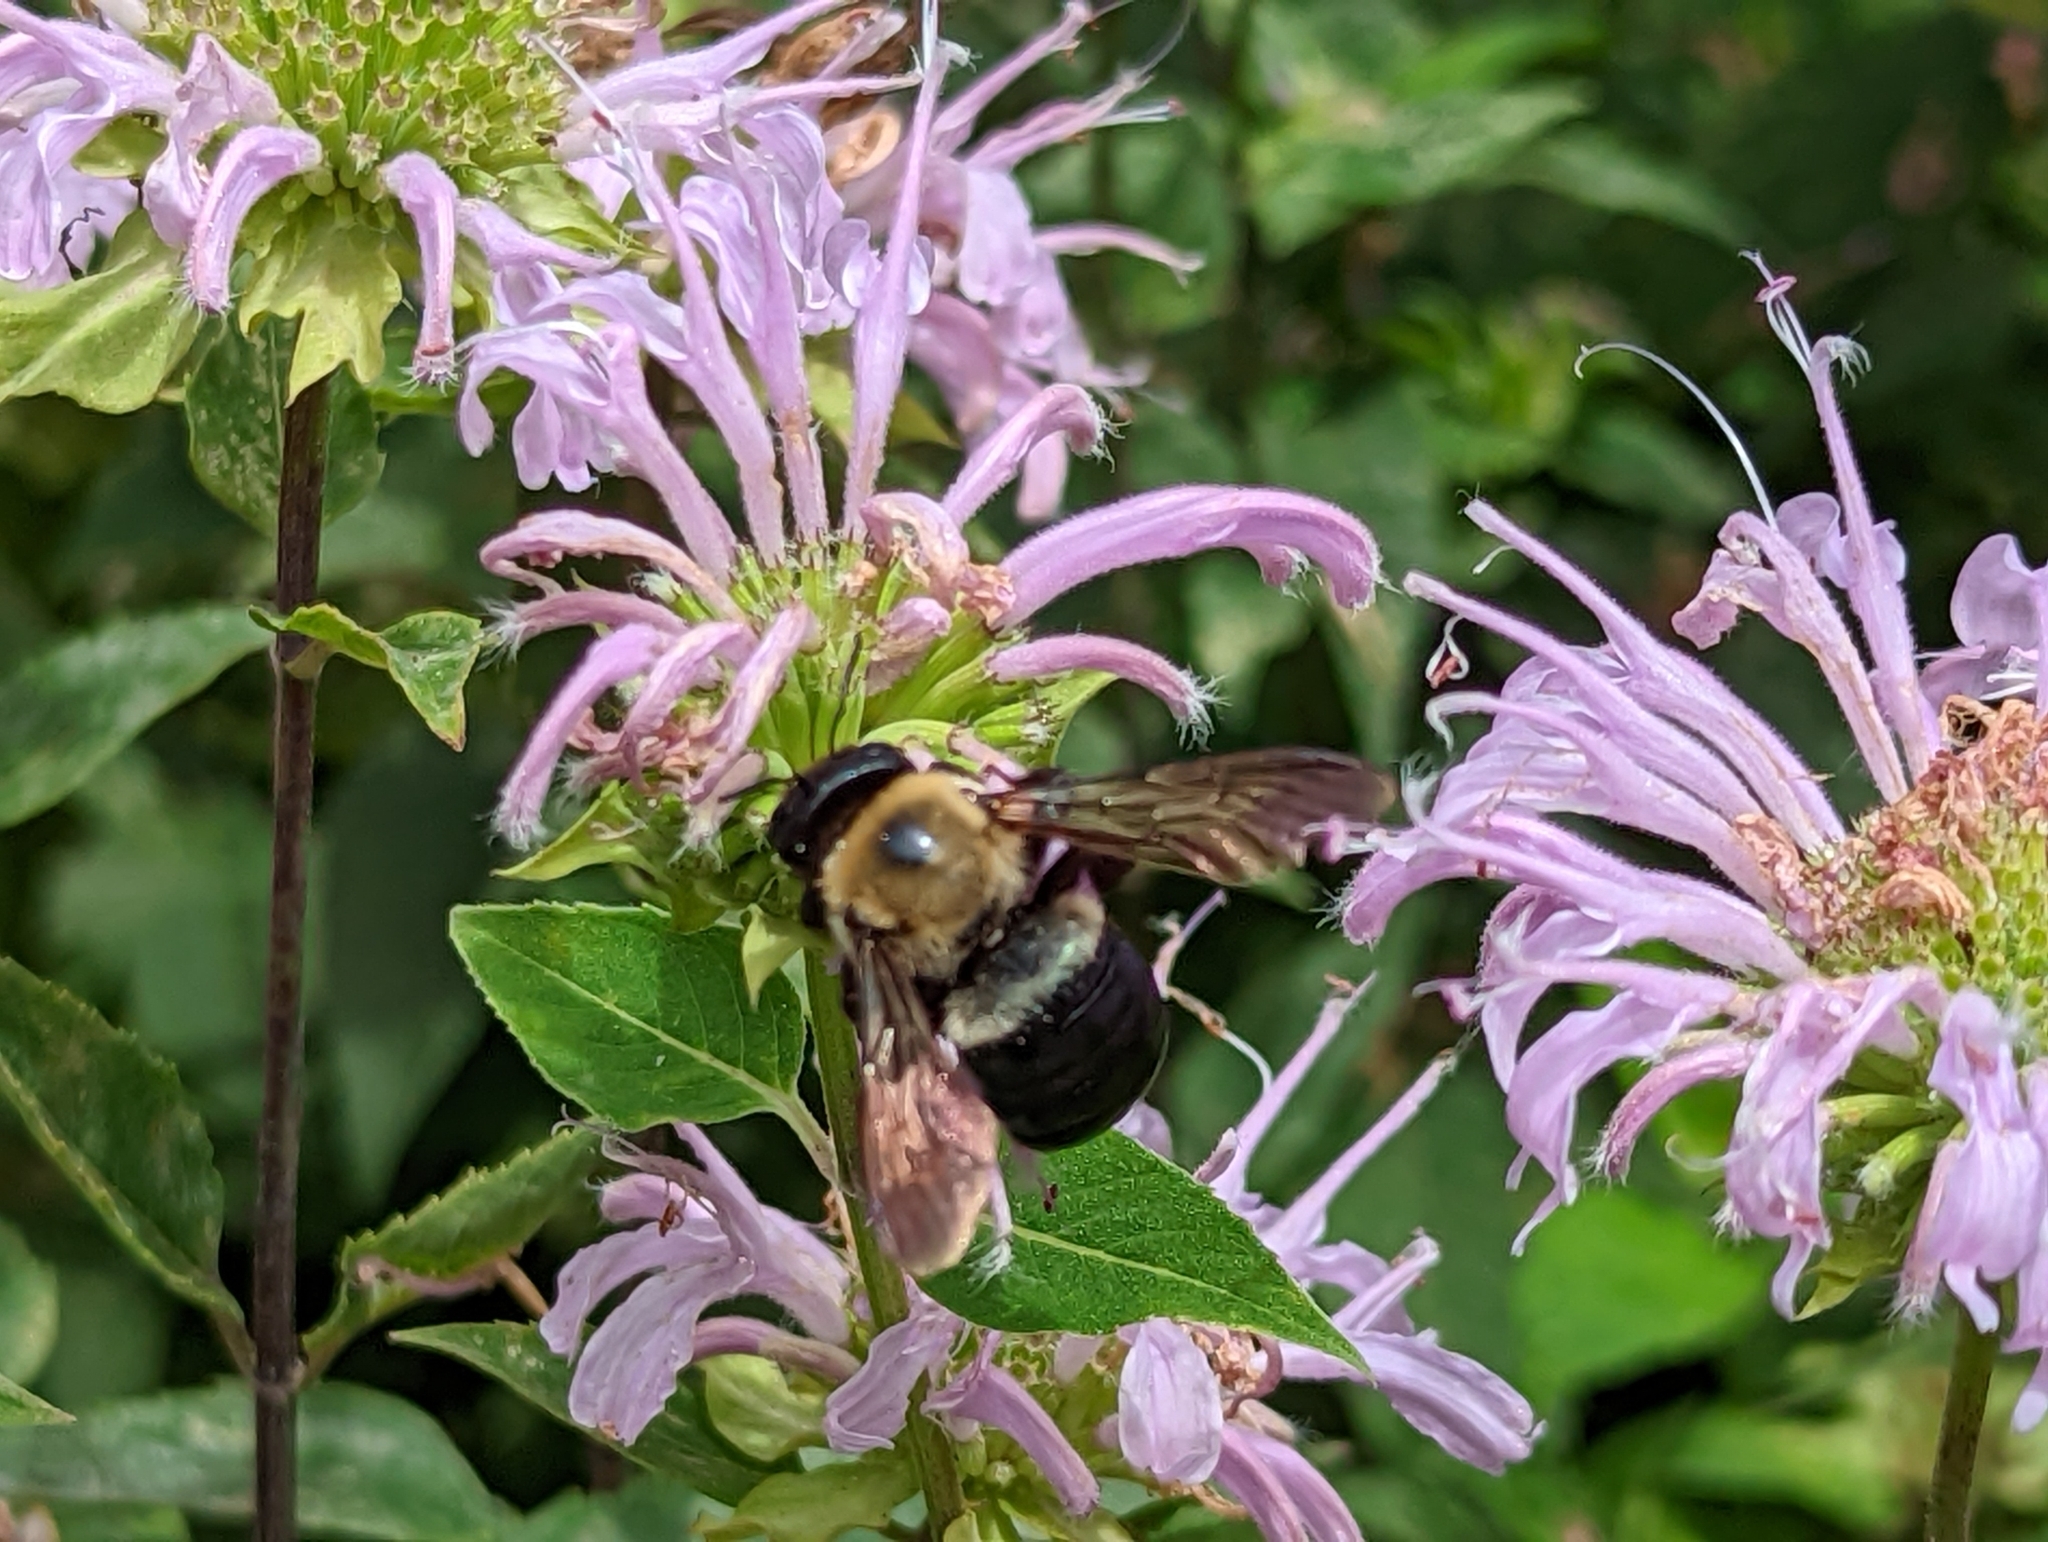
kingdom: Animalia
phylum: Arthropoda
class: Insecta
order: Hymenoptera
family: Apidae
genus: Xylocopa
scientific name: Xylocopa virginica
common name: Carpenter bee
